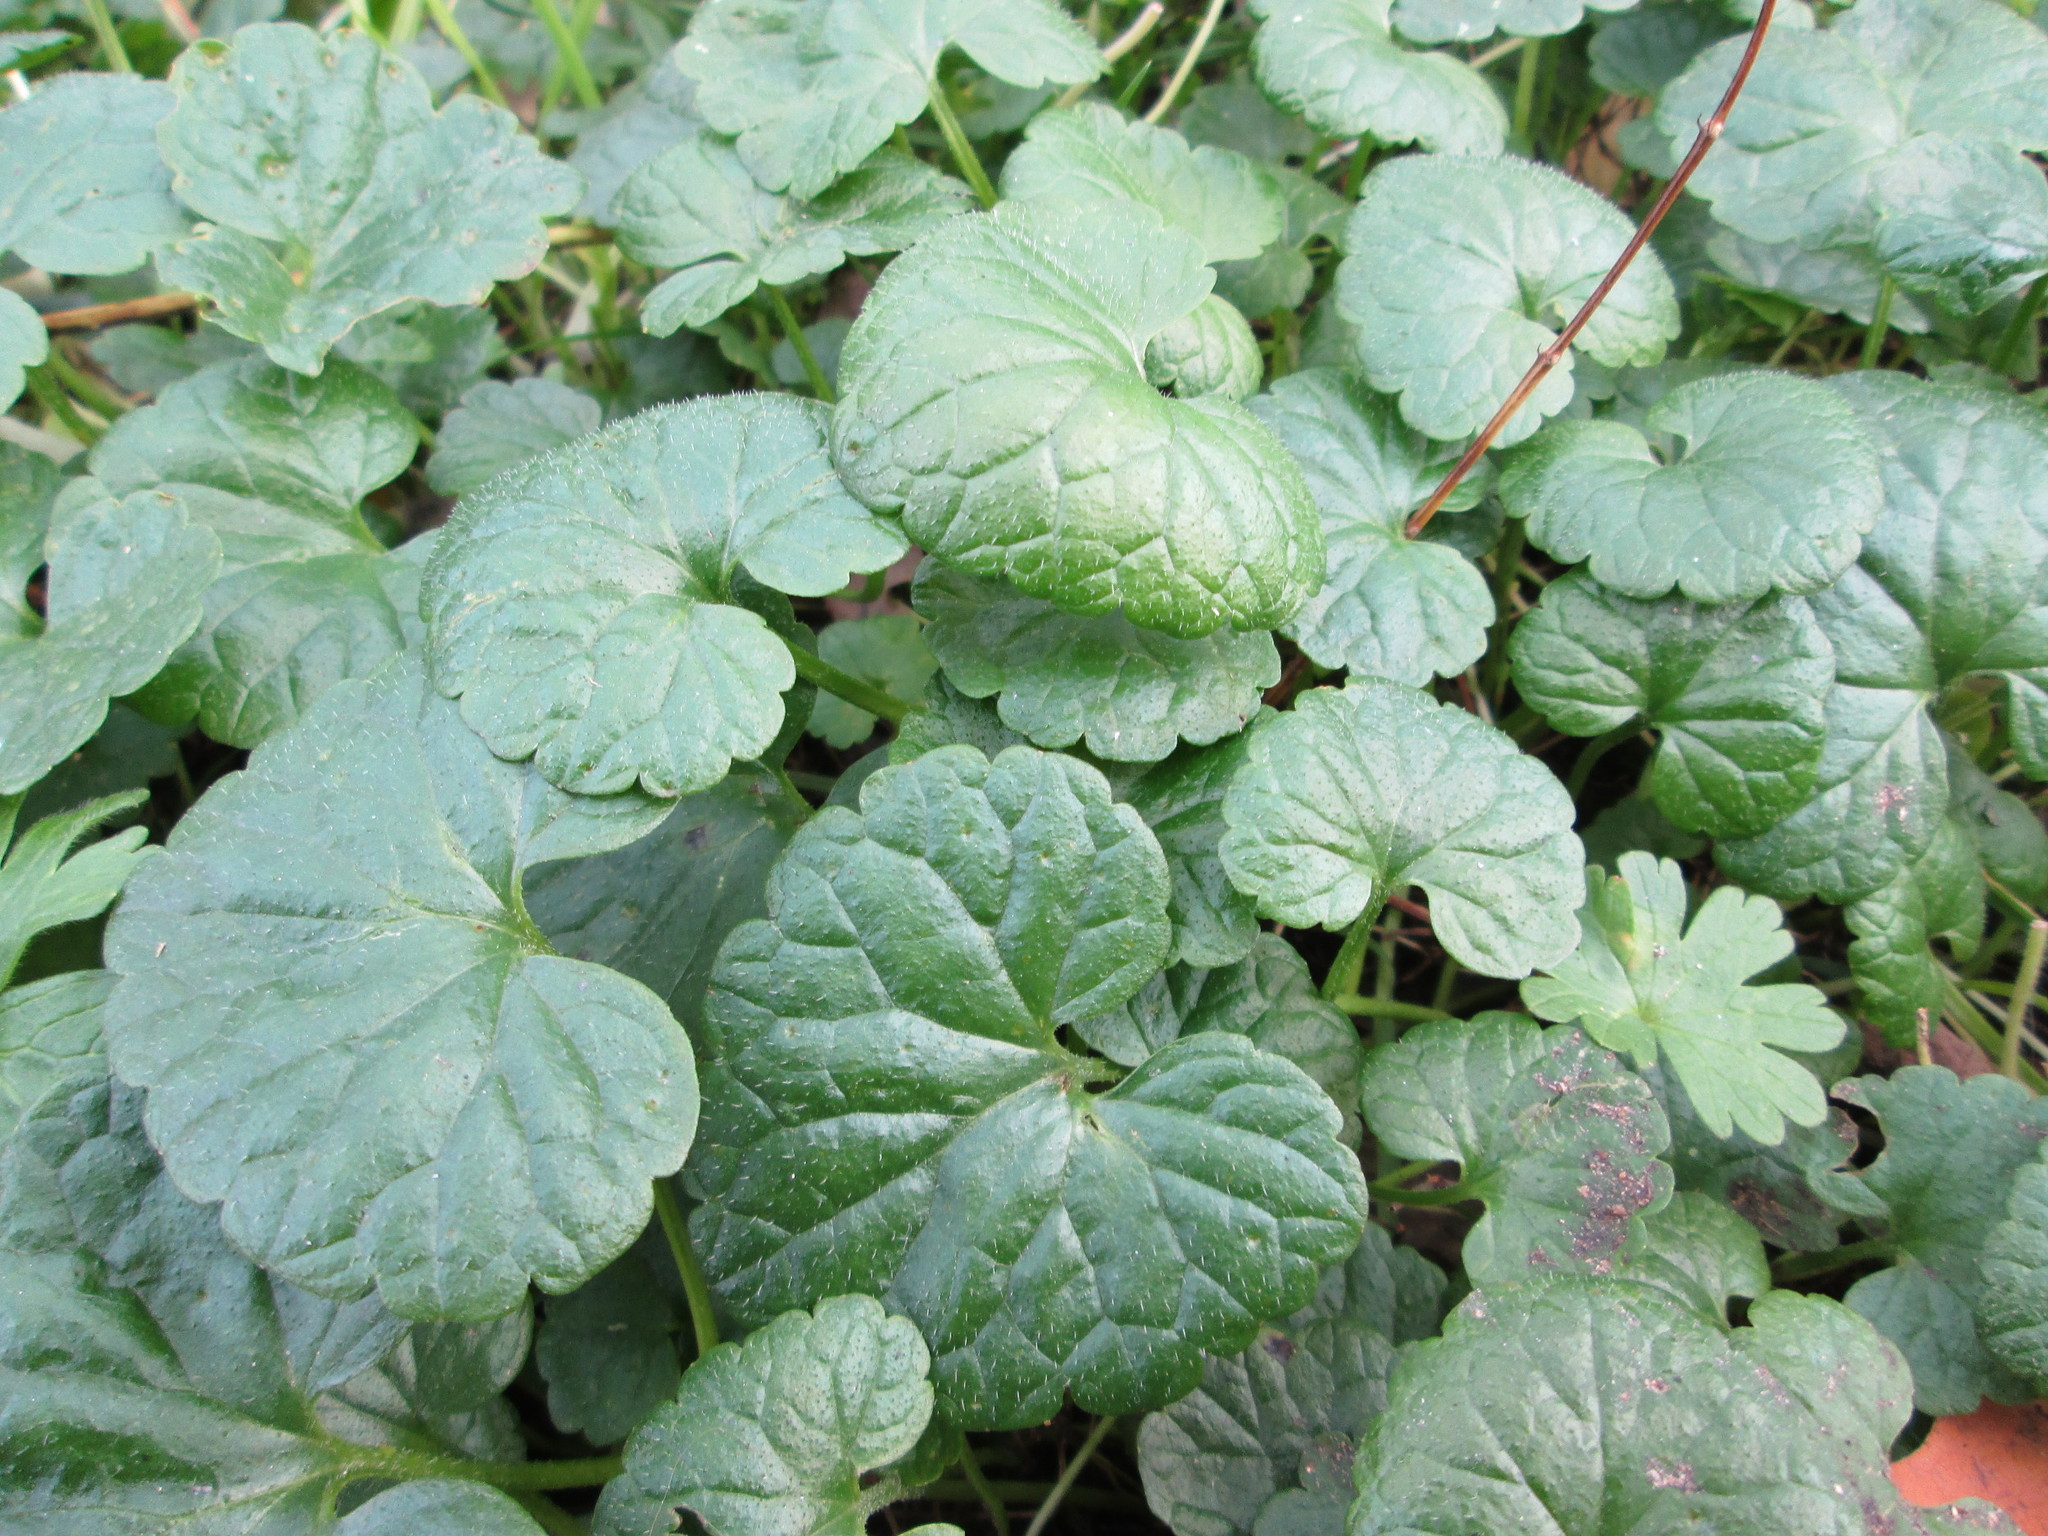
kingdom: Plantae
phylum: Tracheophyta
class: Magnoliopsida
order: Lamiales
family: Lamiaceae
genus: Glechoma
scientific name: Glechoma hederacea
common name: Ground ivy
